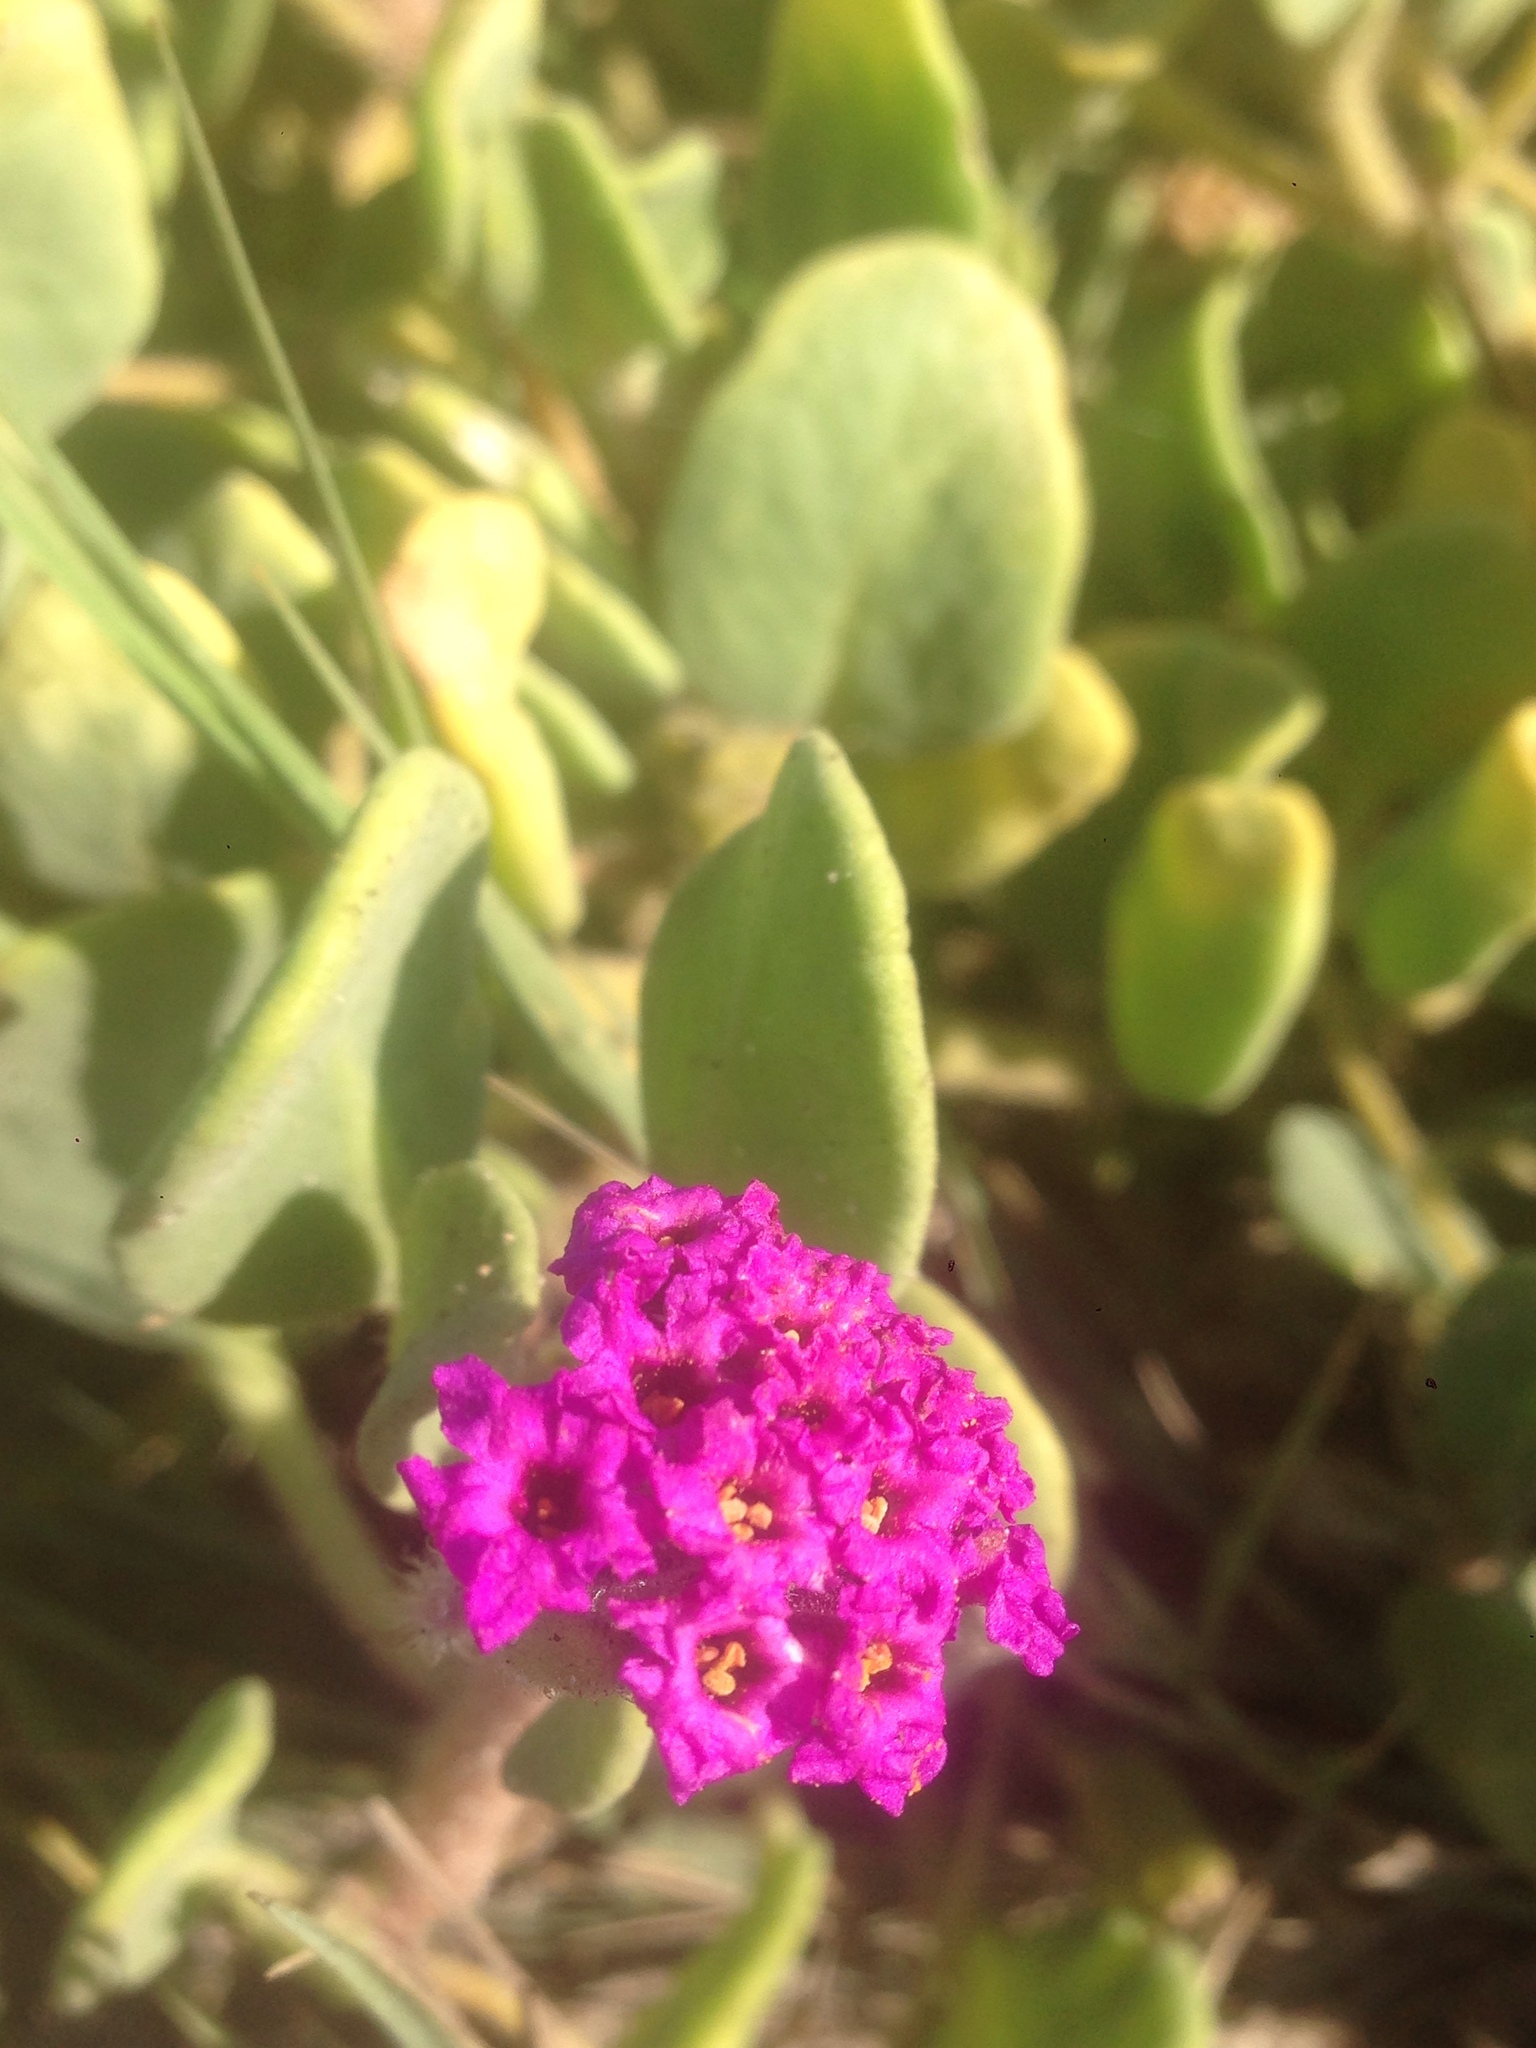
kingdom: Plantae
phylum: Tracheophyta
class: Magnoliopsida
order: Caryophyllales
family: Nyctaginaceae
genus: Abronia
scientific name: Abronia maritima
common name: Red sand-verbena
